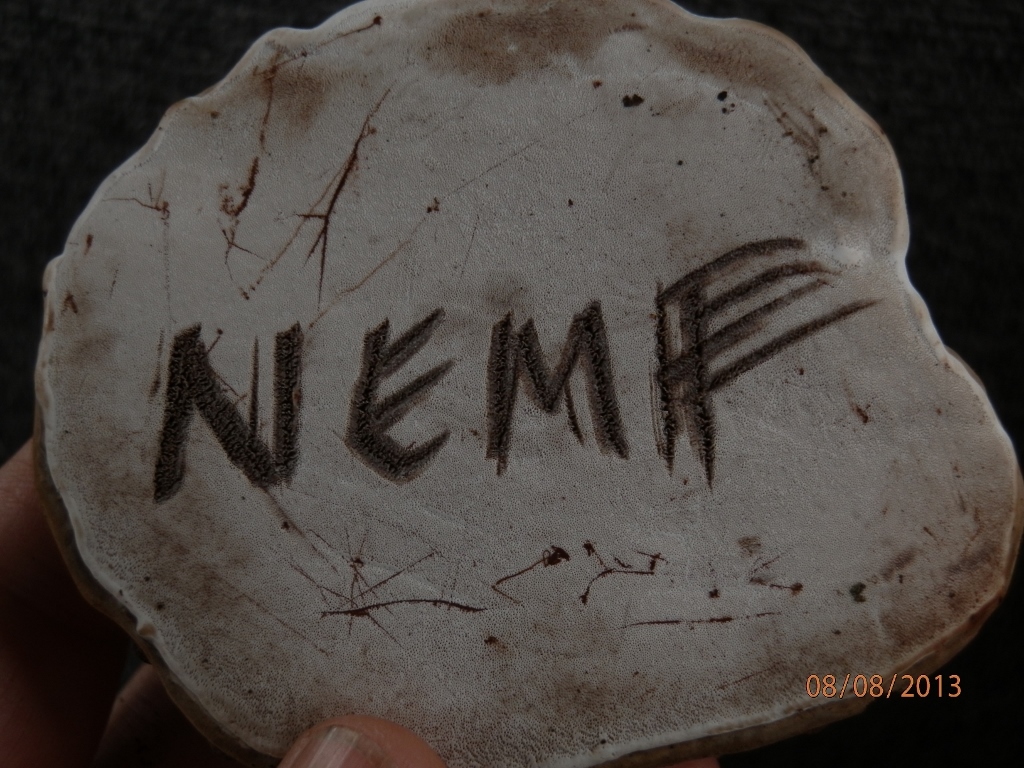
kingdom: Fungi
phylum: Basidiomycota
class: Agaricomycetes
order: Polyporales
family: Polyporaceae
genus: Ganoderma
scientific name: Ganoderma applanatum
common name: Artist's bracket
